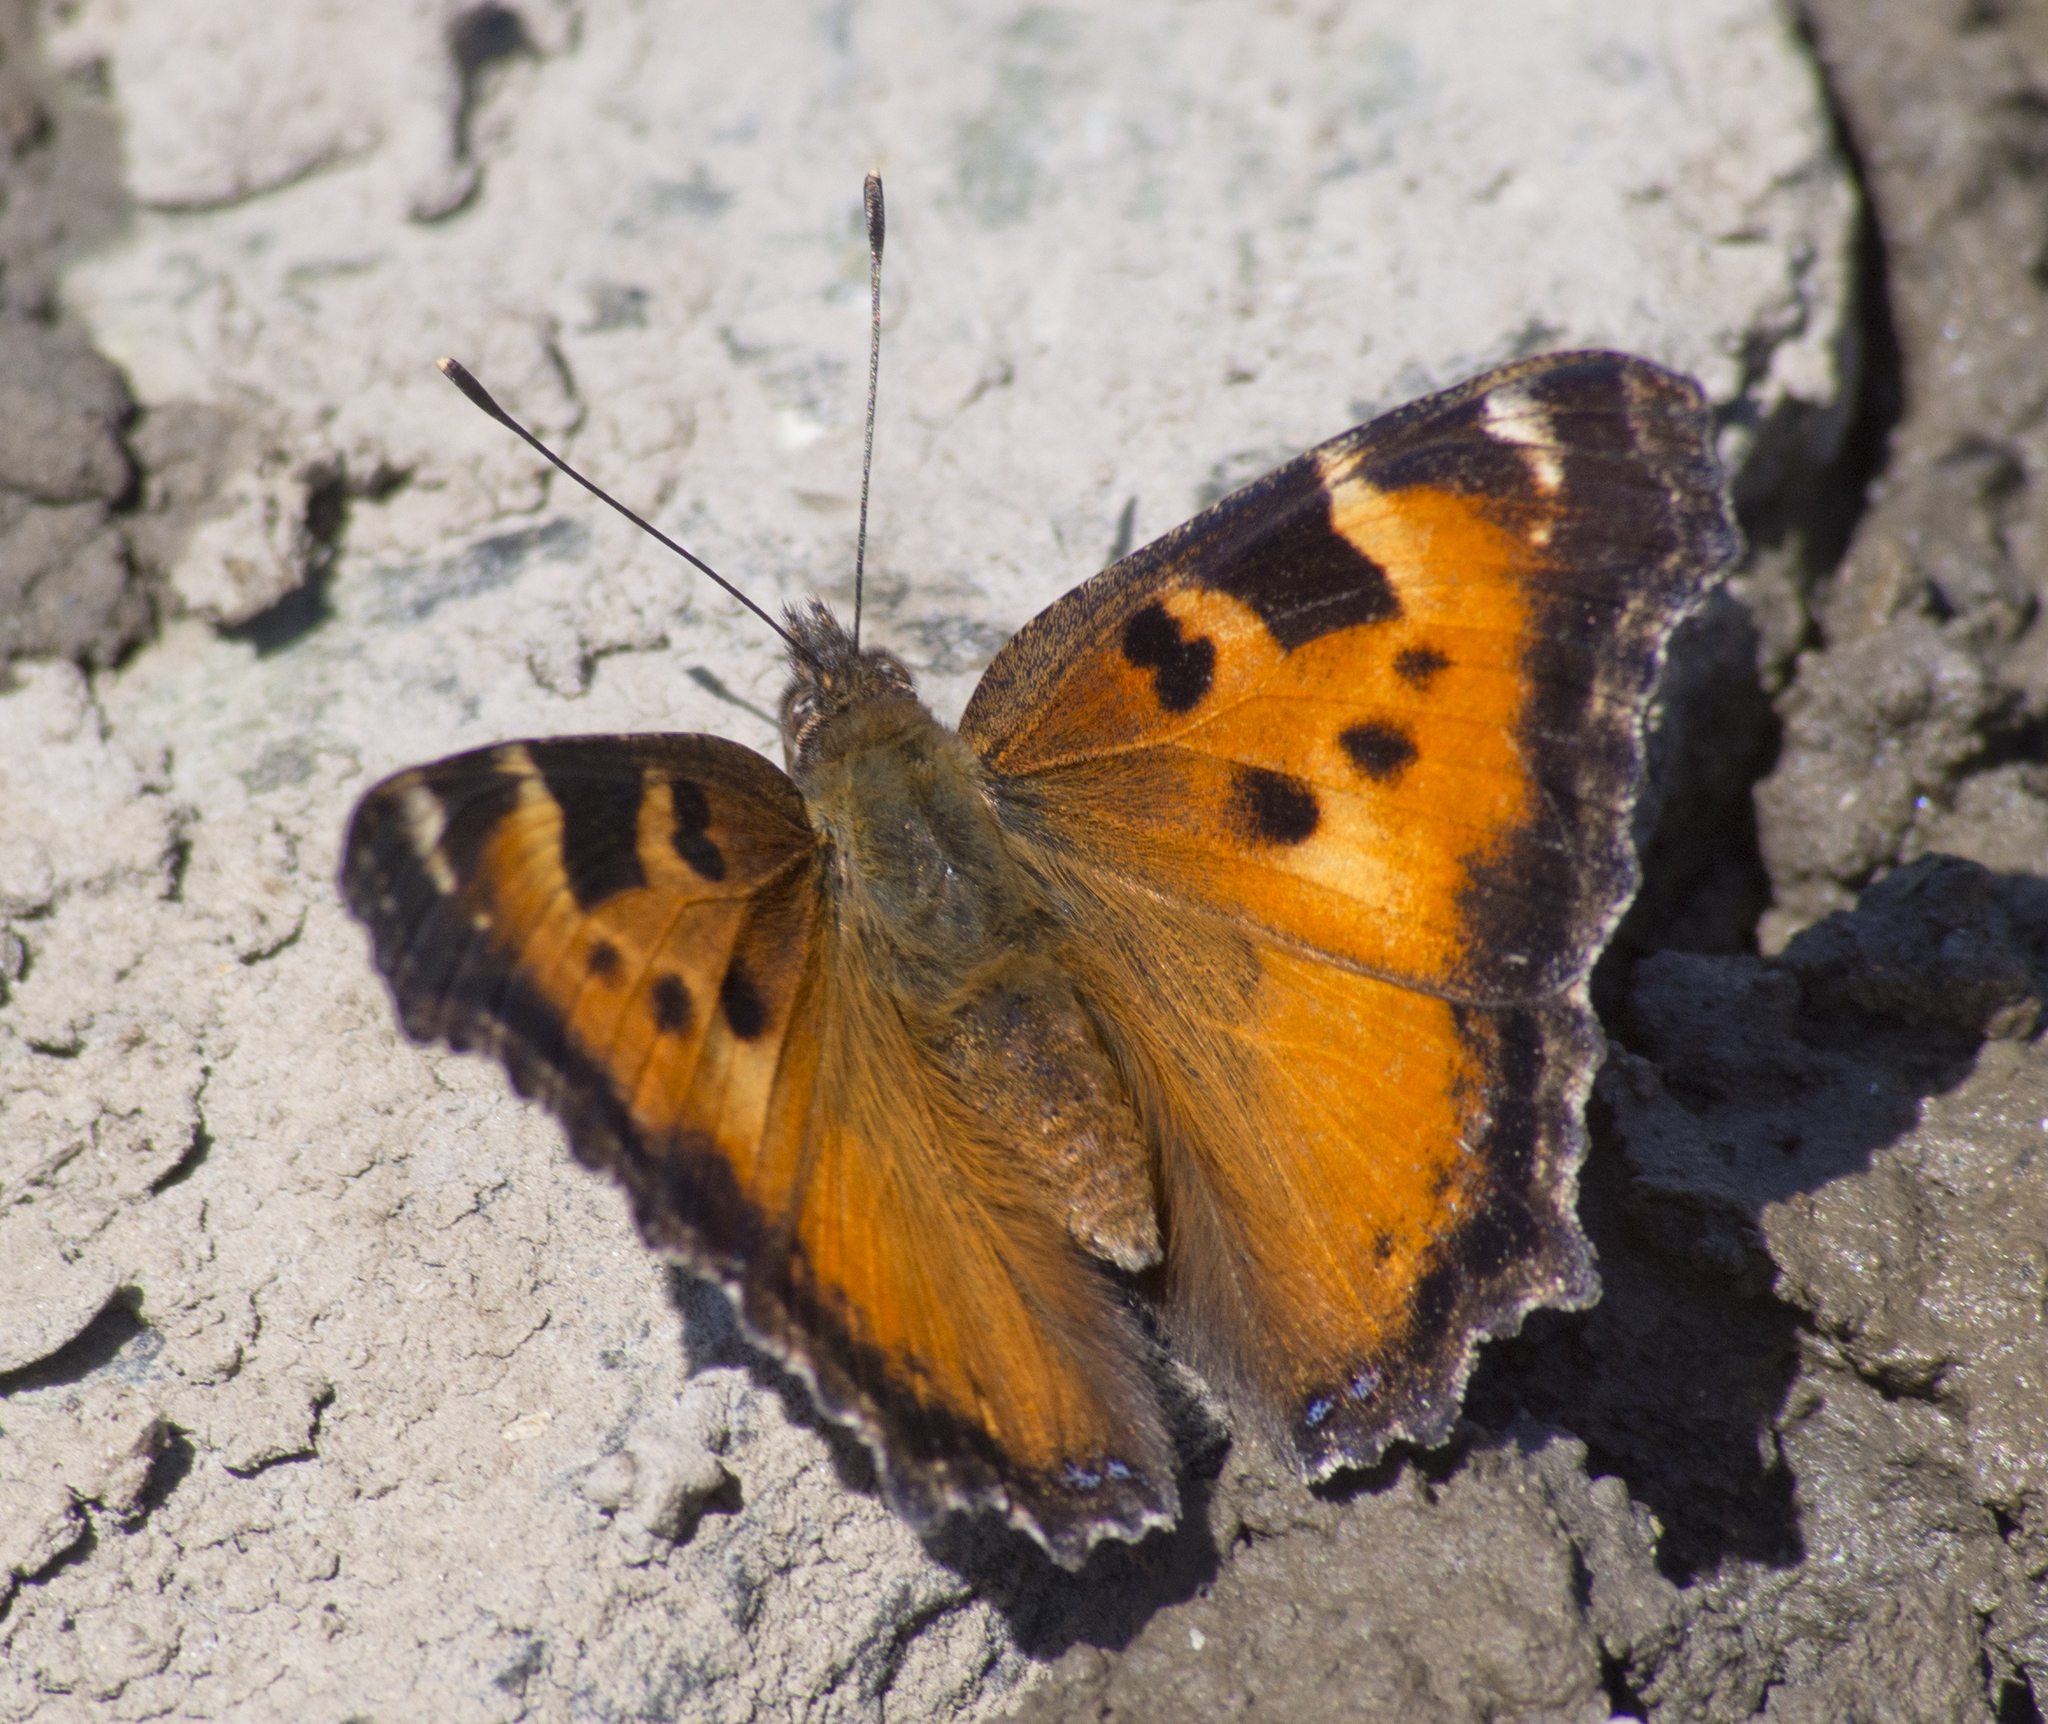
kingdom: Animalia
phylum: Arthropoda
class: Insecta
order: Lepidoptera
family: Nymphalidae
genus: Nymphalis
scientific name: Nymphalis californica
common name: California tortoiseshell
